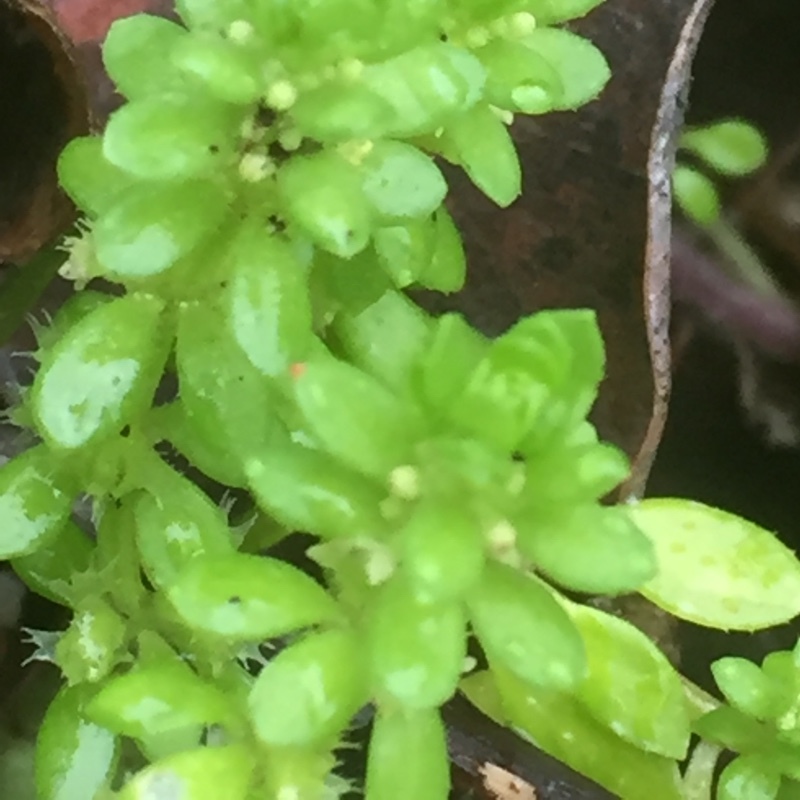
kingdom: Plantae
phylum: Tracheophyta
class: Magnoliopsida
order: Gentianales
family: Rubiaceae
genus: Valantia
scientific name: Valantia muralis
